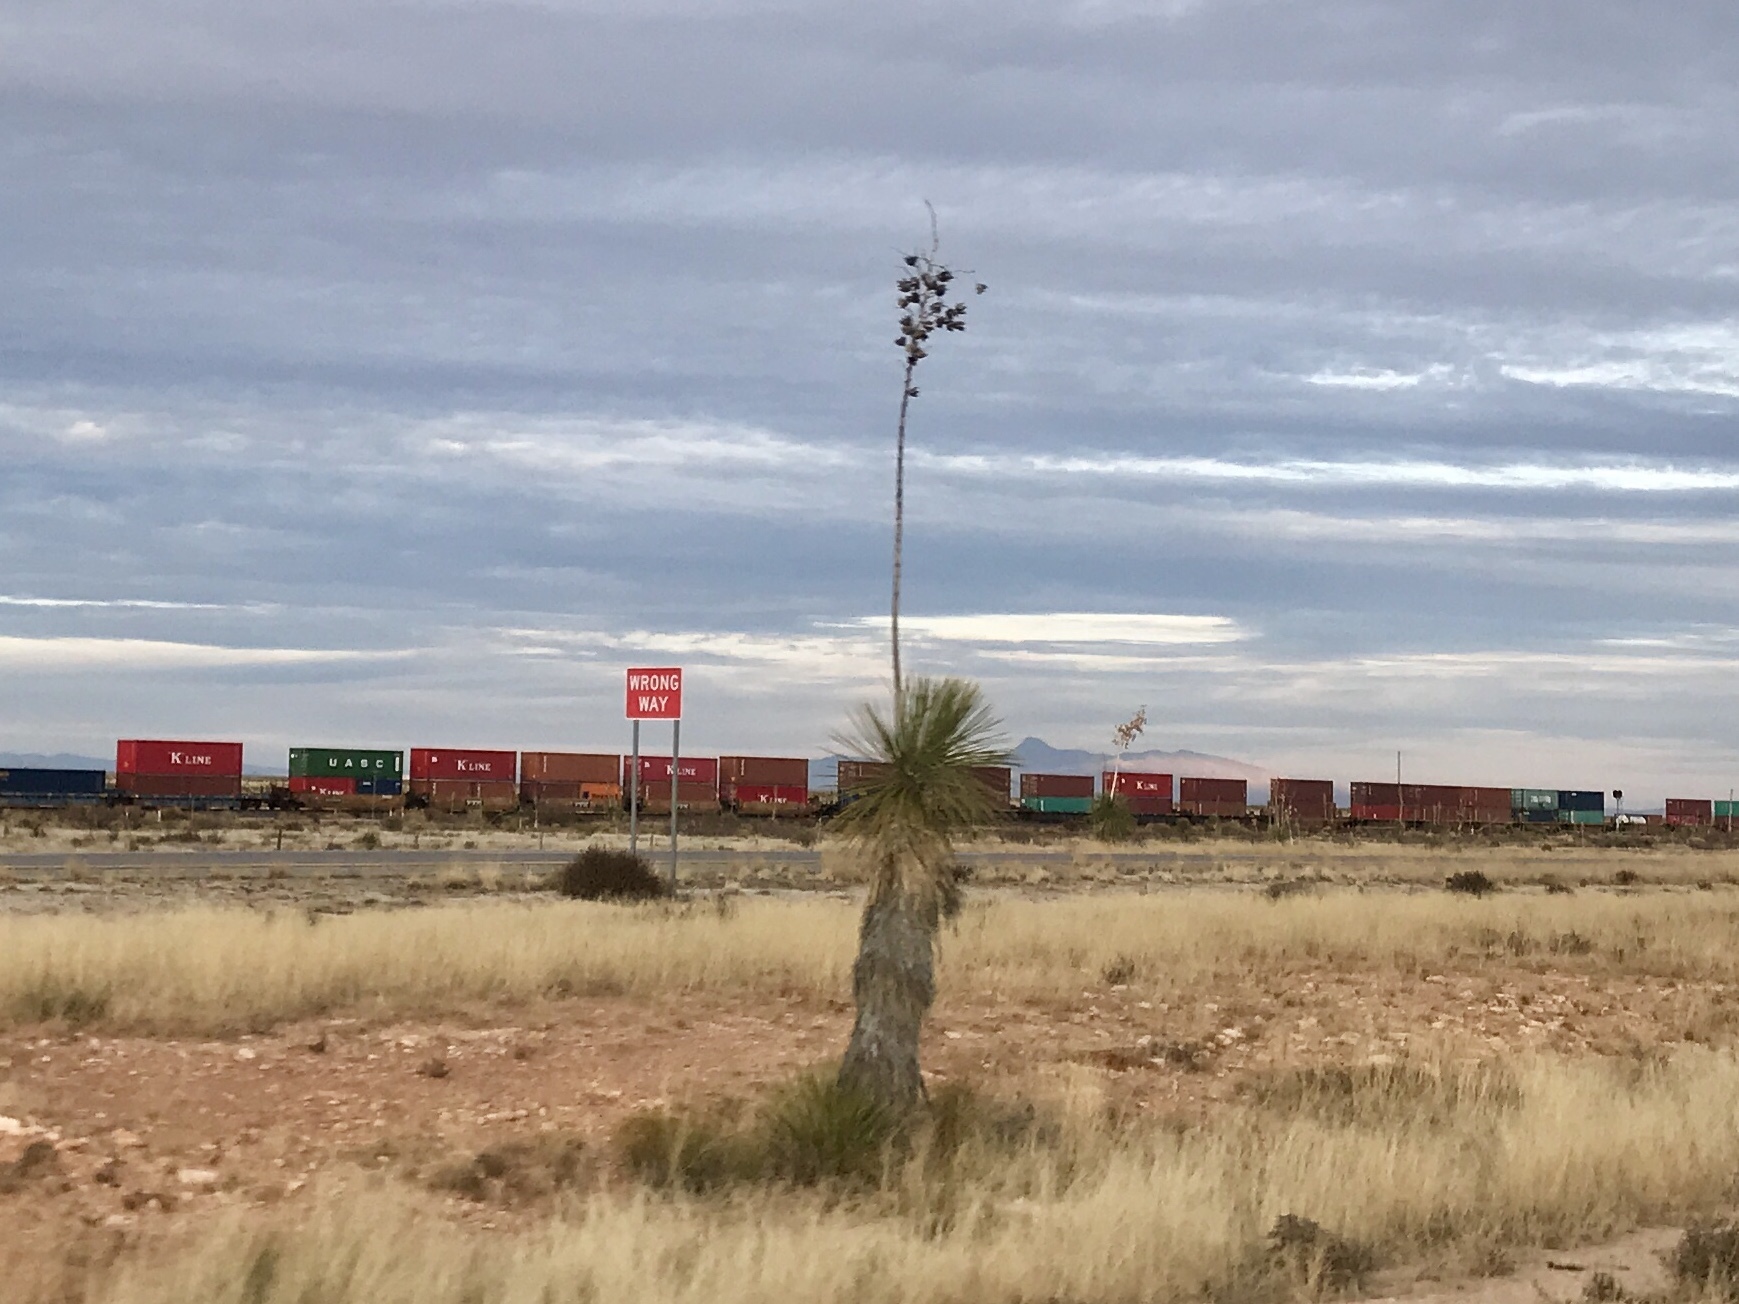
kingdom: Plantae
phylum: Tracheophyta
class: Liliopsida
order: Asparagales
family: Asparagaceae
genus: Yucca
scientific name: Yucca elata
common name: Palmella
